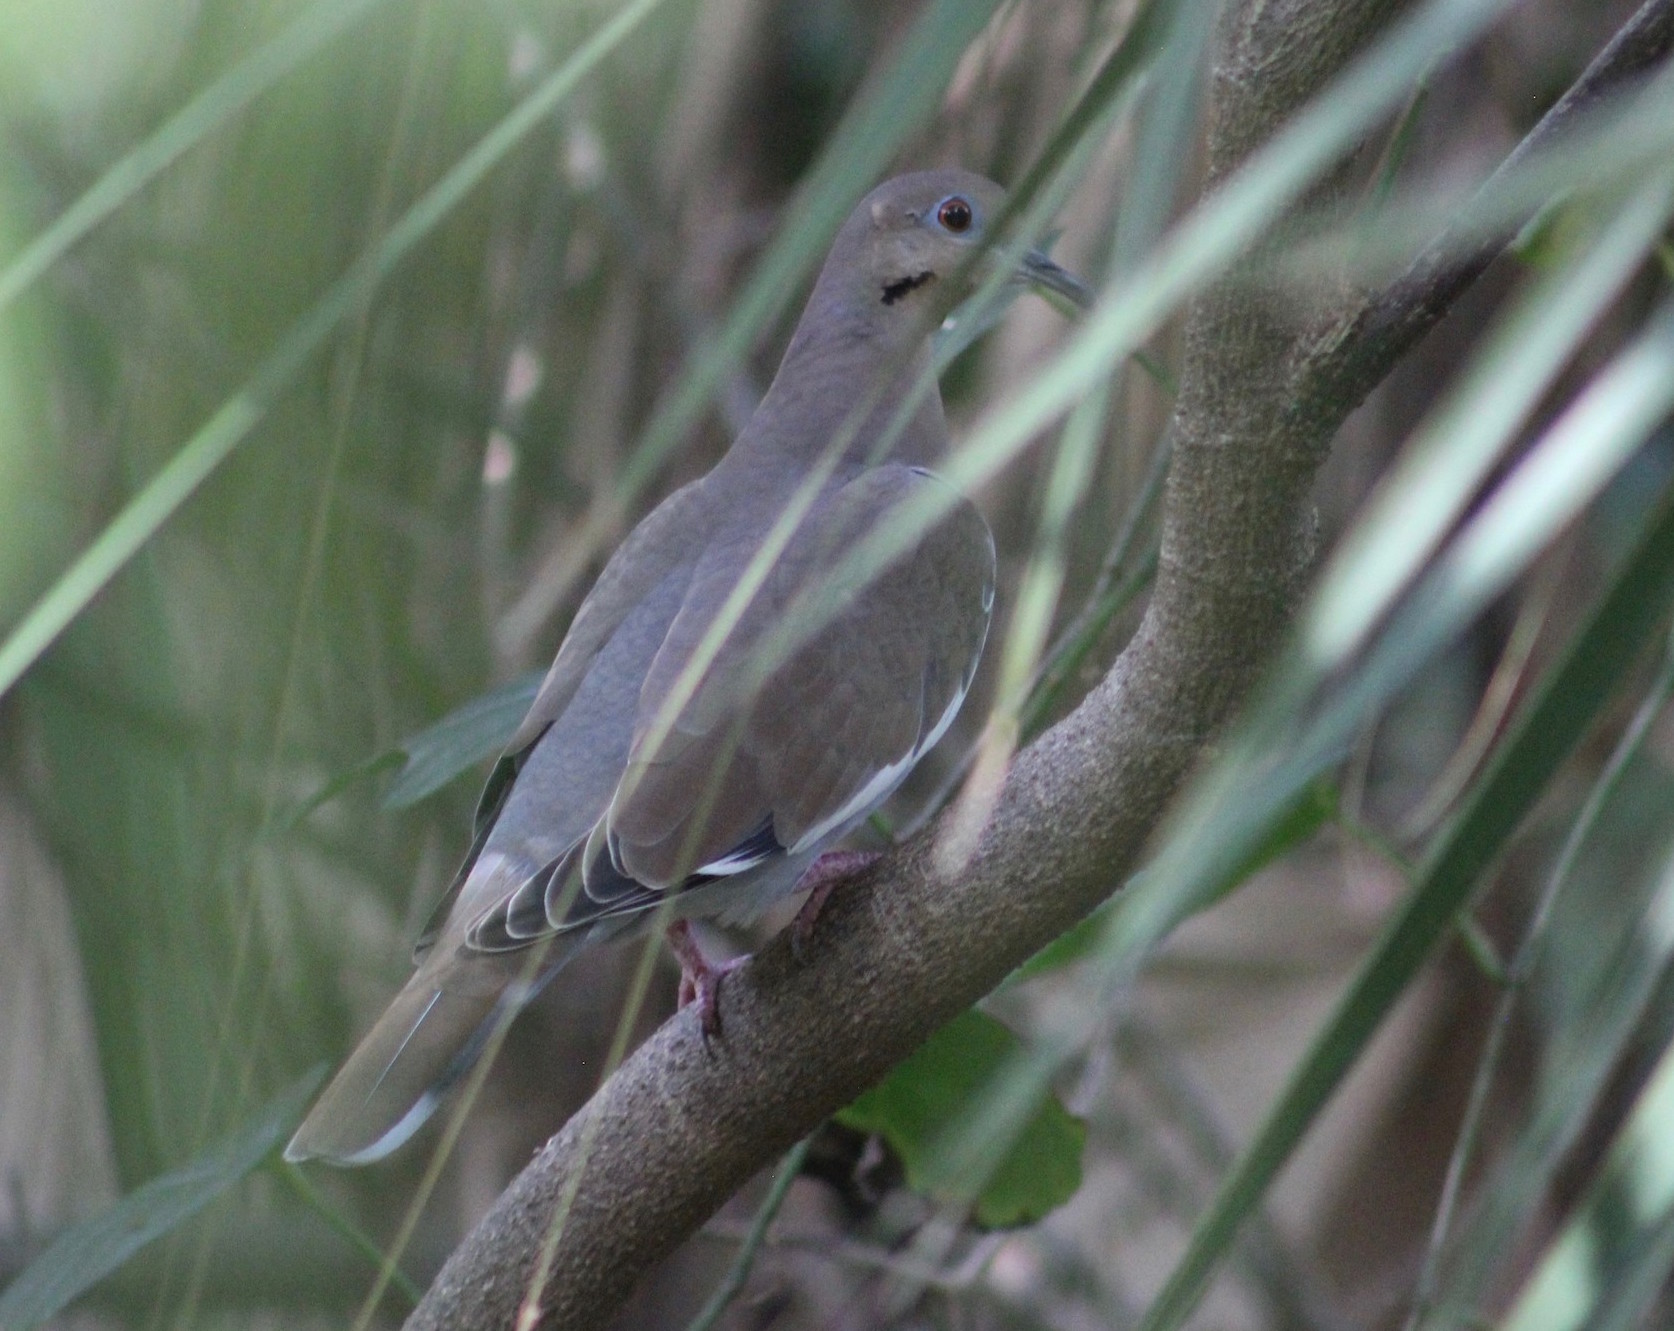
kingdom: Animalia
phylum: Chordata
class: Aves
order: Columbiformes
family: Columbidae
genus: Zenaida
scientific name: Zenaida asiatica
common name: White-winged dove
